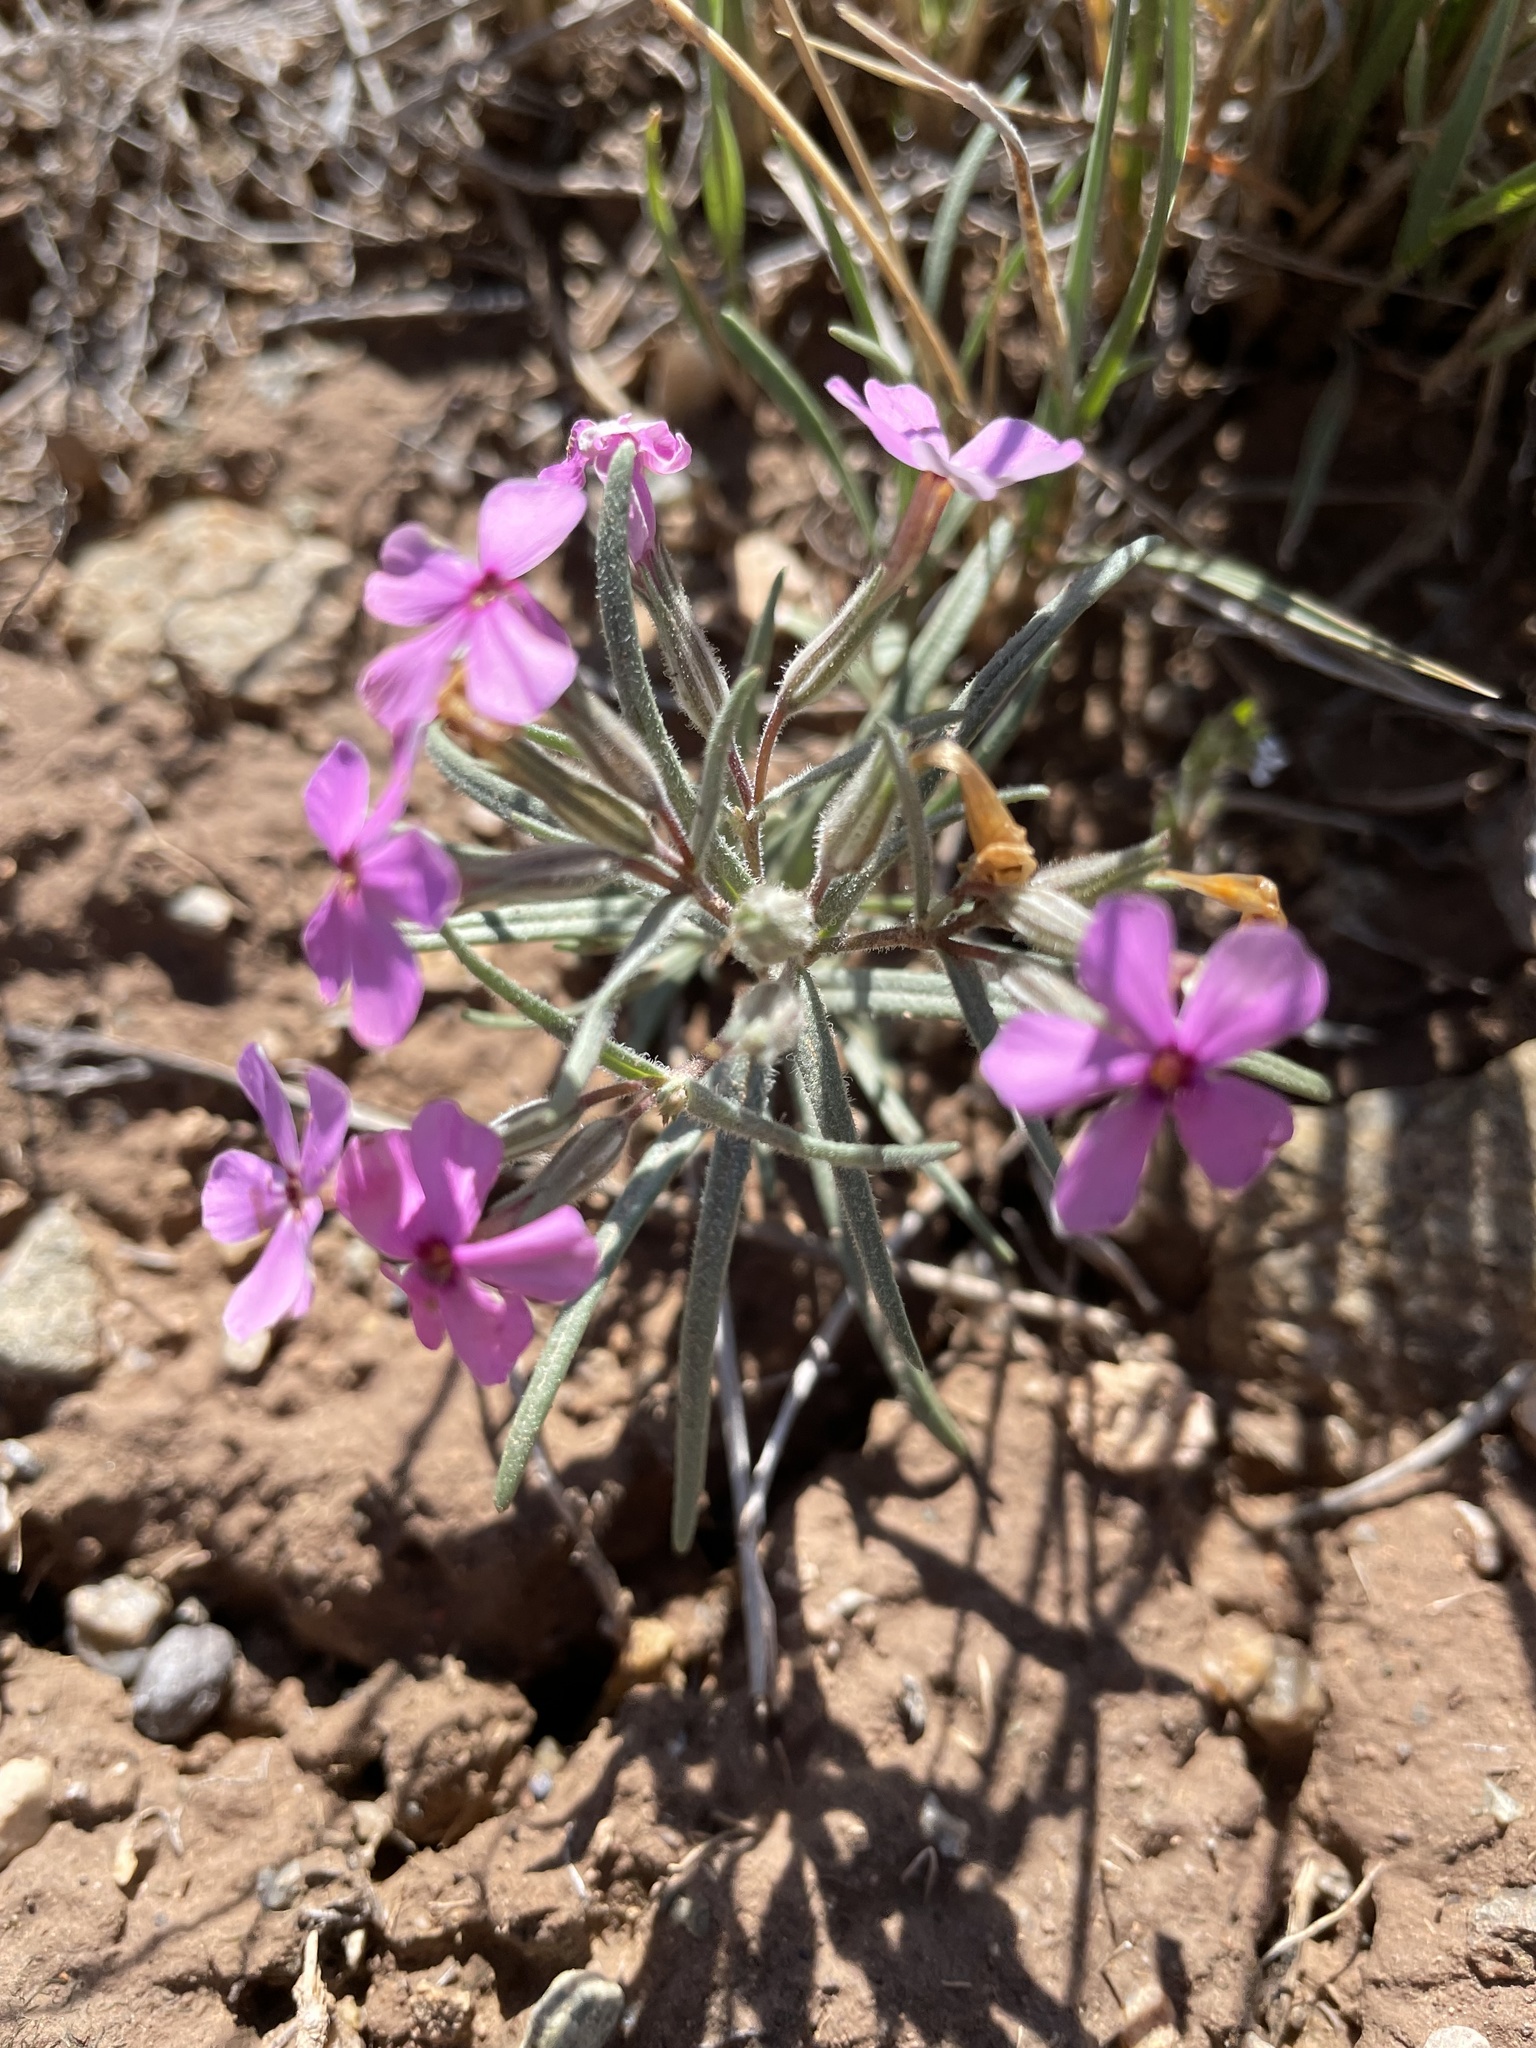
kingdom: Plantae
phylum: Tracheophyta
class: Magnoliopsida
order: Ericales
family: Polemoniaceae
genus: Phlox
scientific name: Phlox longifolia
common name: Longleaf phlox
